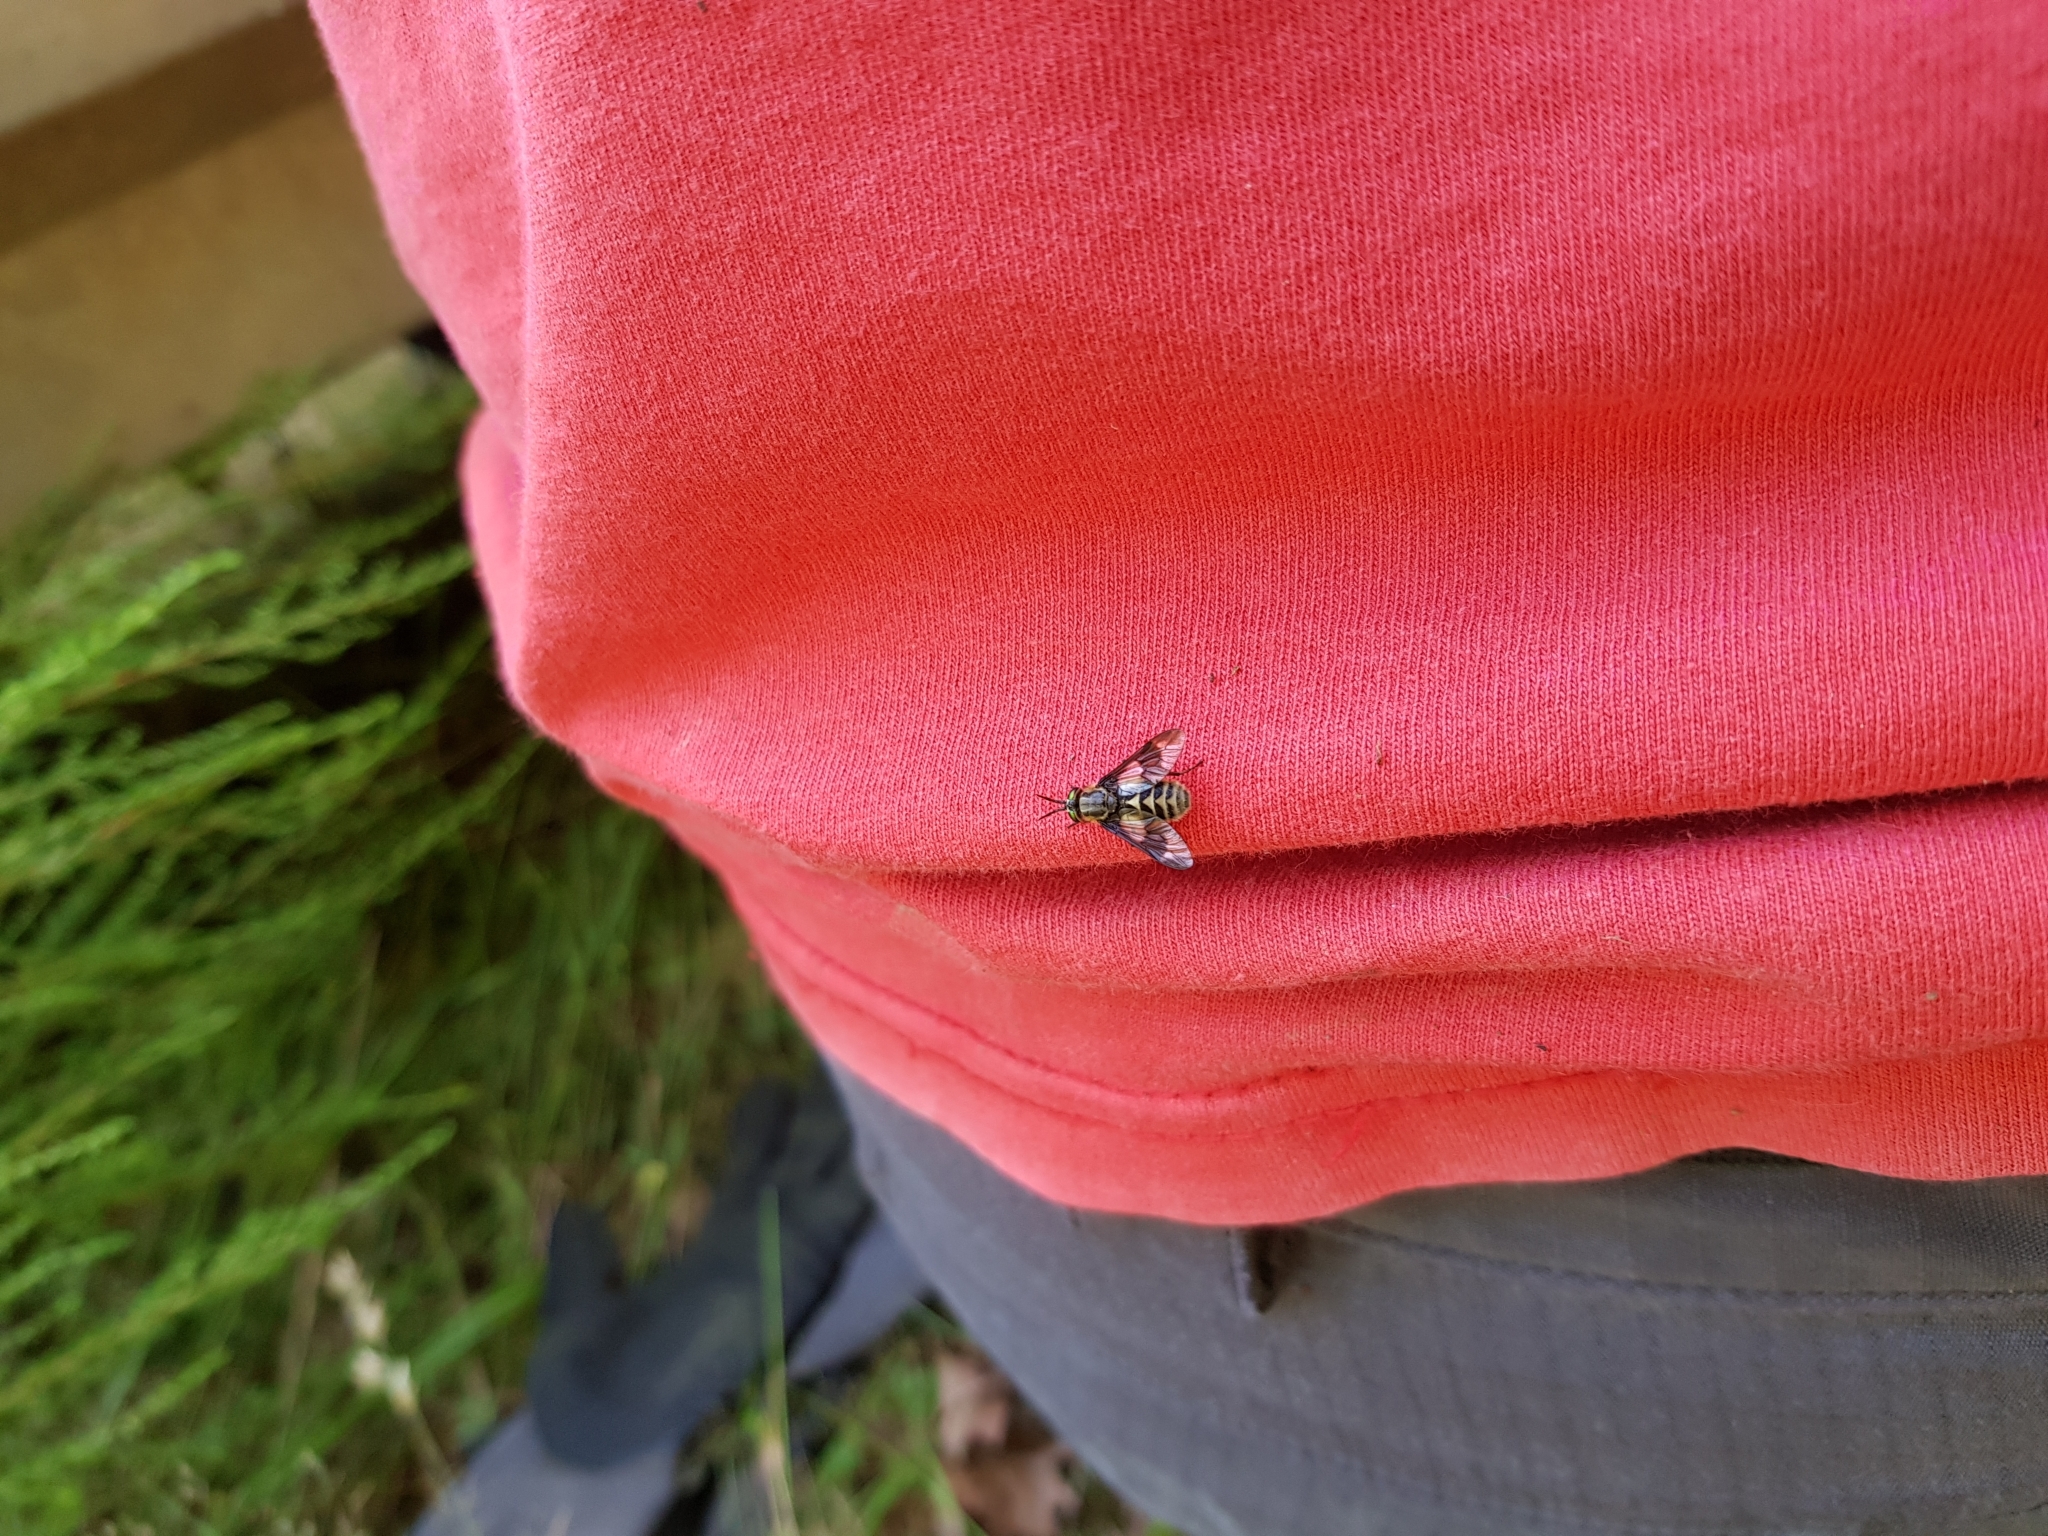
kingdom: Animalia
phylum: Arthropoda
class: Insecta
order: Diptera
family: Tabanidae
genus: Chrysops
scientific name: Chrysops relictus
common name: Twin-lobed deerfly
